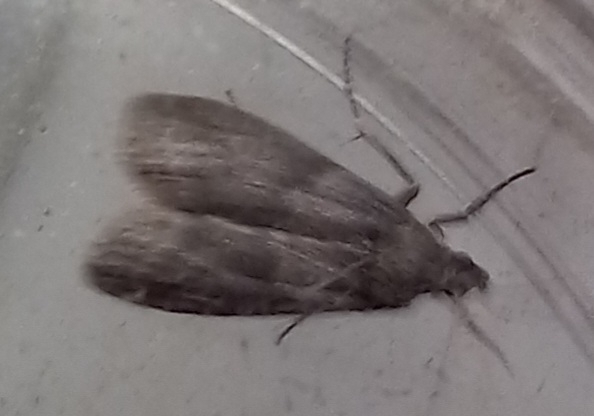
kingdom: Animalia
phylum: Arthropoda
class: Insecta
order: Lepidoptera
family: Pyralidae
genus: Ectomyelois
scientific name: Ectomyelois ceratoniae
